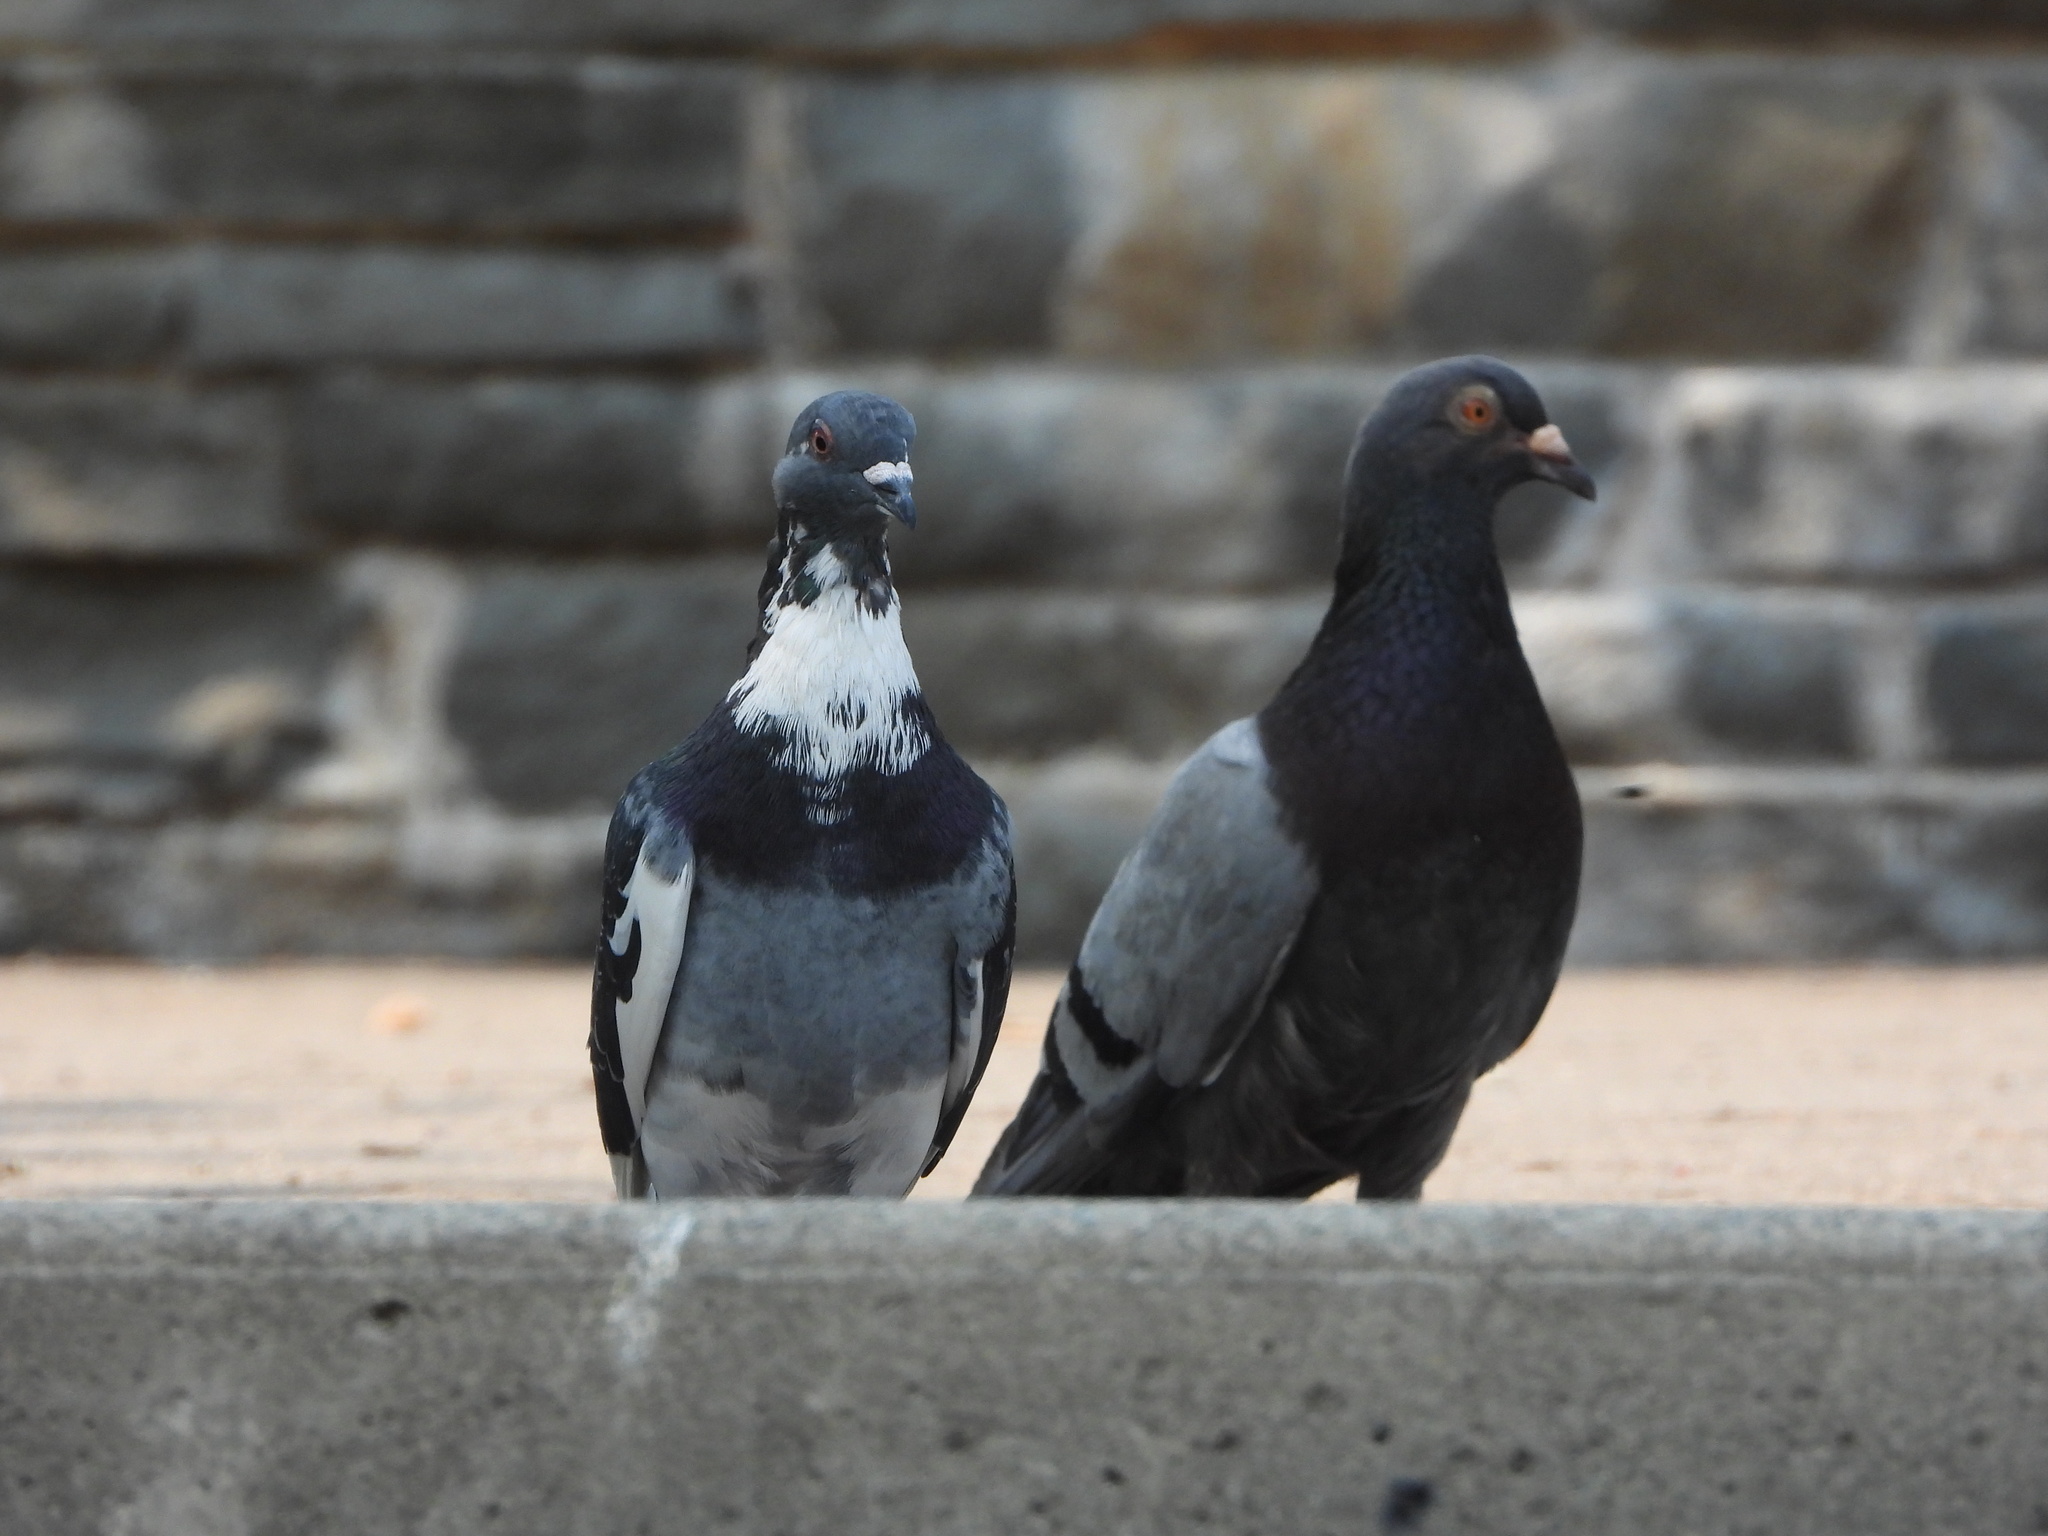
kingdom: Animalia
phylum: Chordata
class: Aves
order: Columbiformes
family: Columbidae
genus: Columba
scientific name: Columba livia
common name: Rock pigeon
